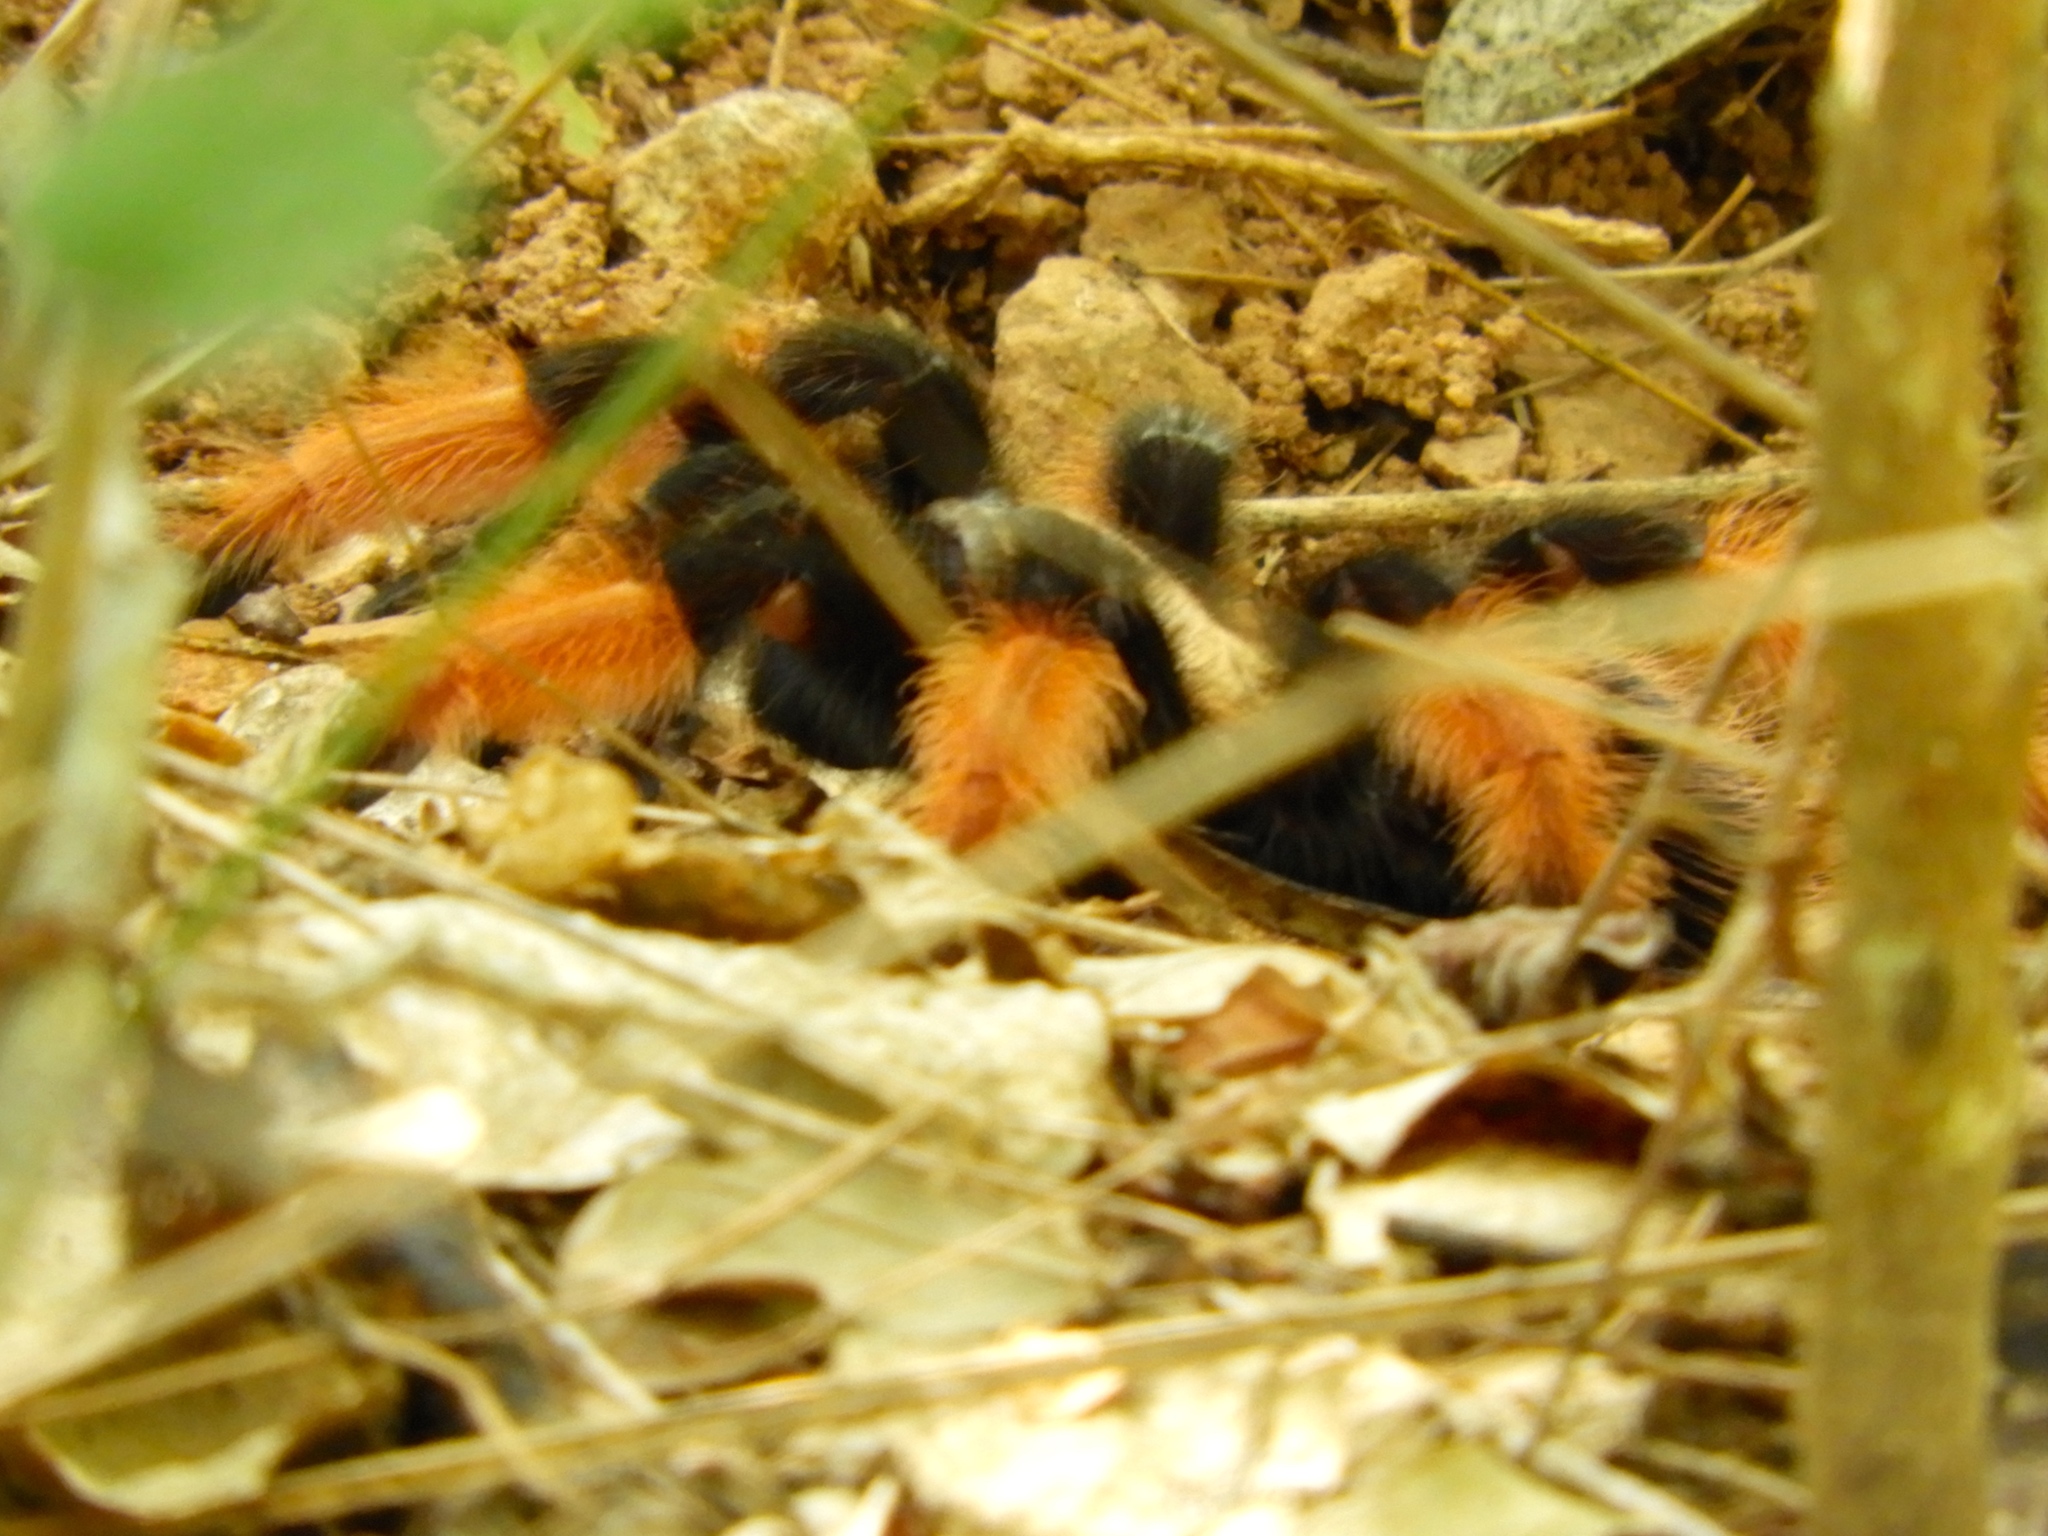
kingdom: Animalia
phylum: Arthropoda
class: Arachnida
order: Araneae
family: Theraphosidae
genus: Brachypelma
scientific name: Brachypelma emilia
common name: Mexican redleg
